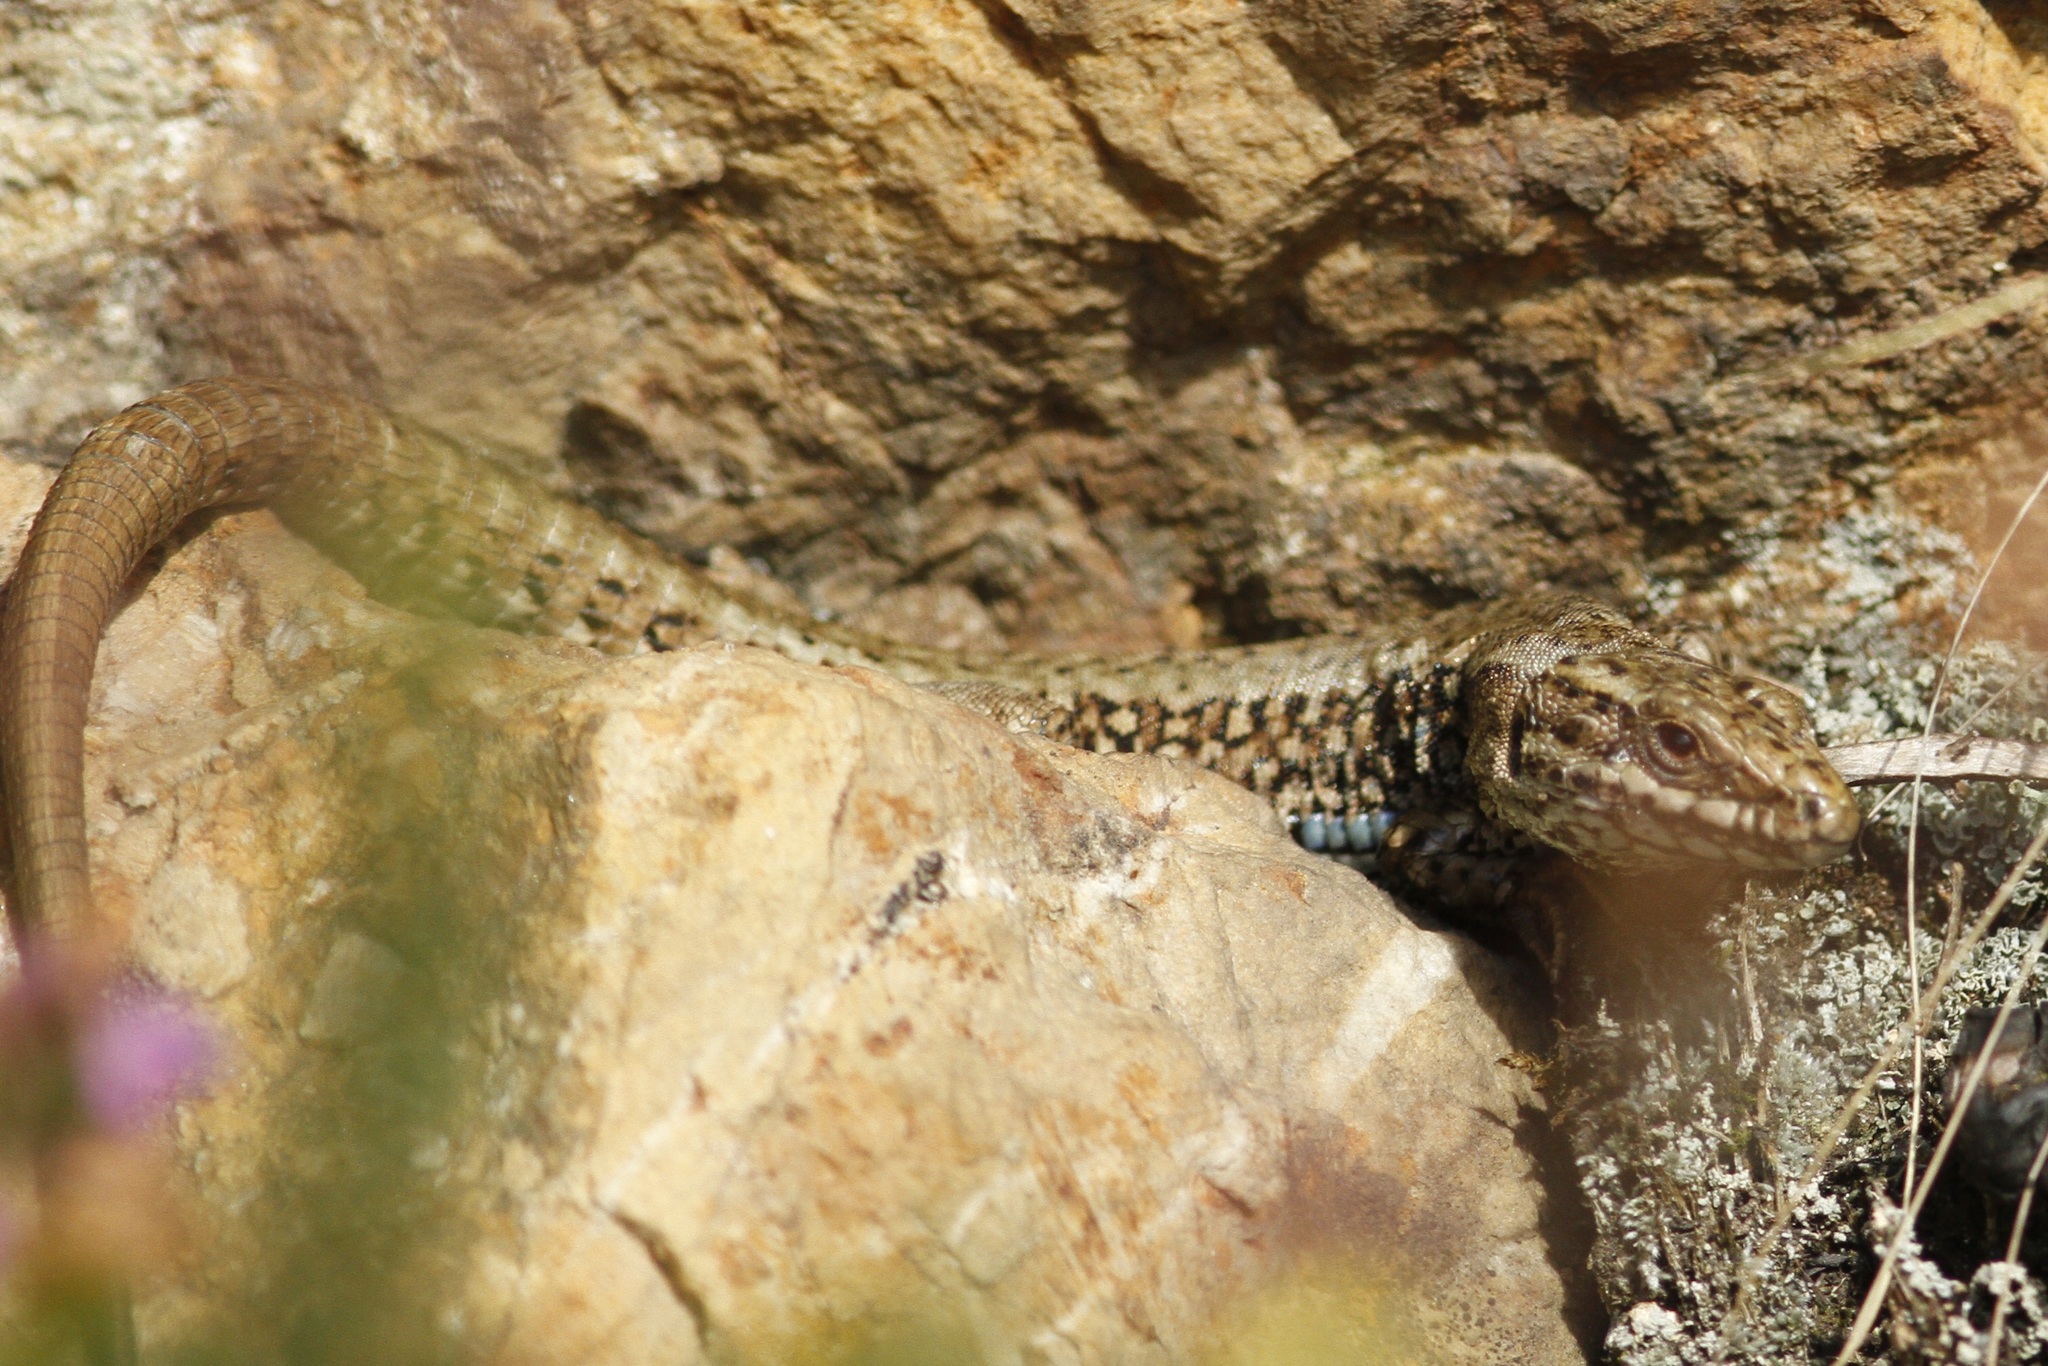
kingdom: Animalia
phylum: Chordata
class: Squamata
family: Lacertidae
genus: Podarcis
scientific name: Podarcis muralis
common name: Common wall lizard
